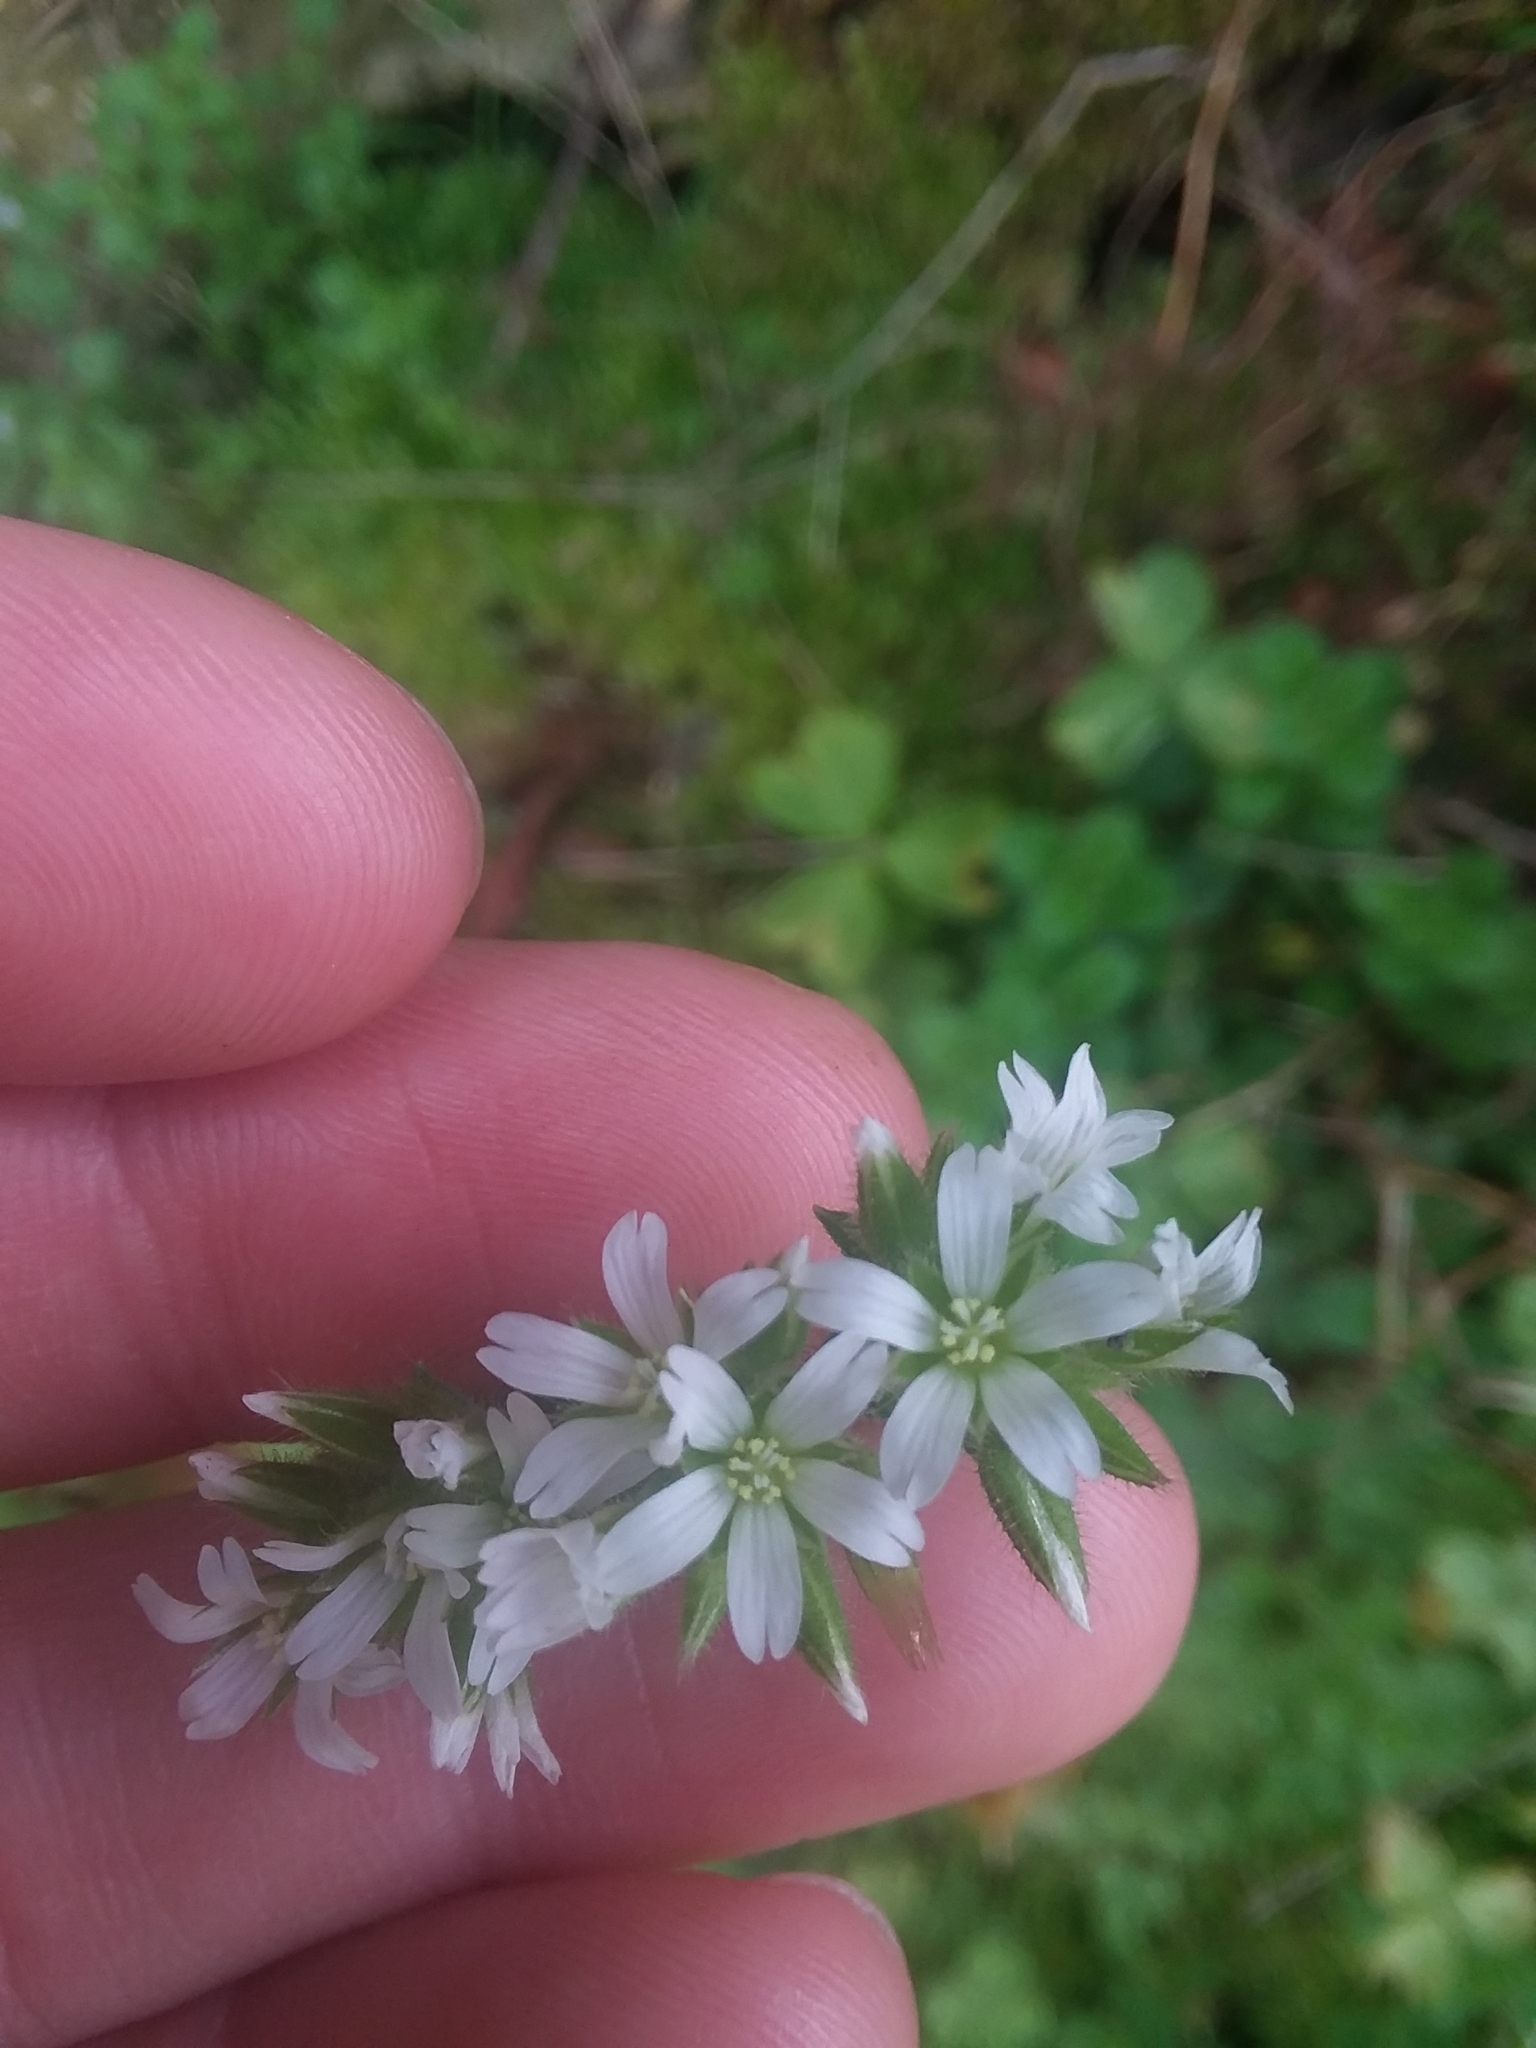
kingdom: Plantae
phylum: Tracheophyta
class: Magnoliopsida
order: Caryophyllales
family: Caryophyllaceae
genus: Cerastium
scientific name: Cerastium glomeratum
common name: Sticky chickweed
